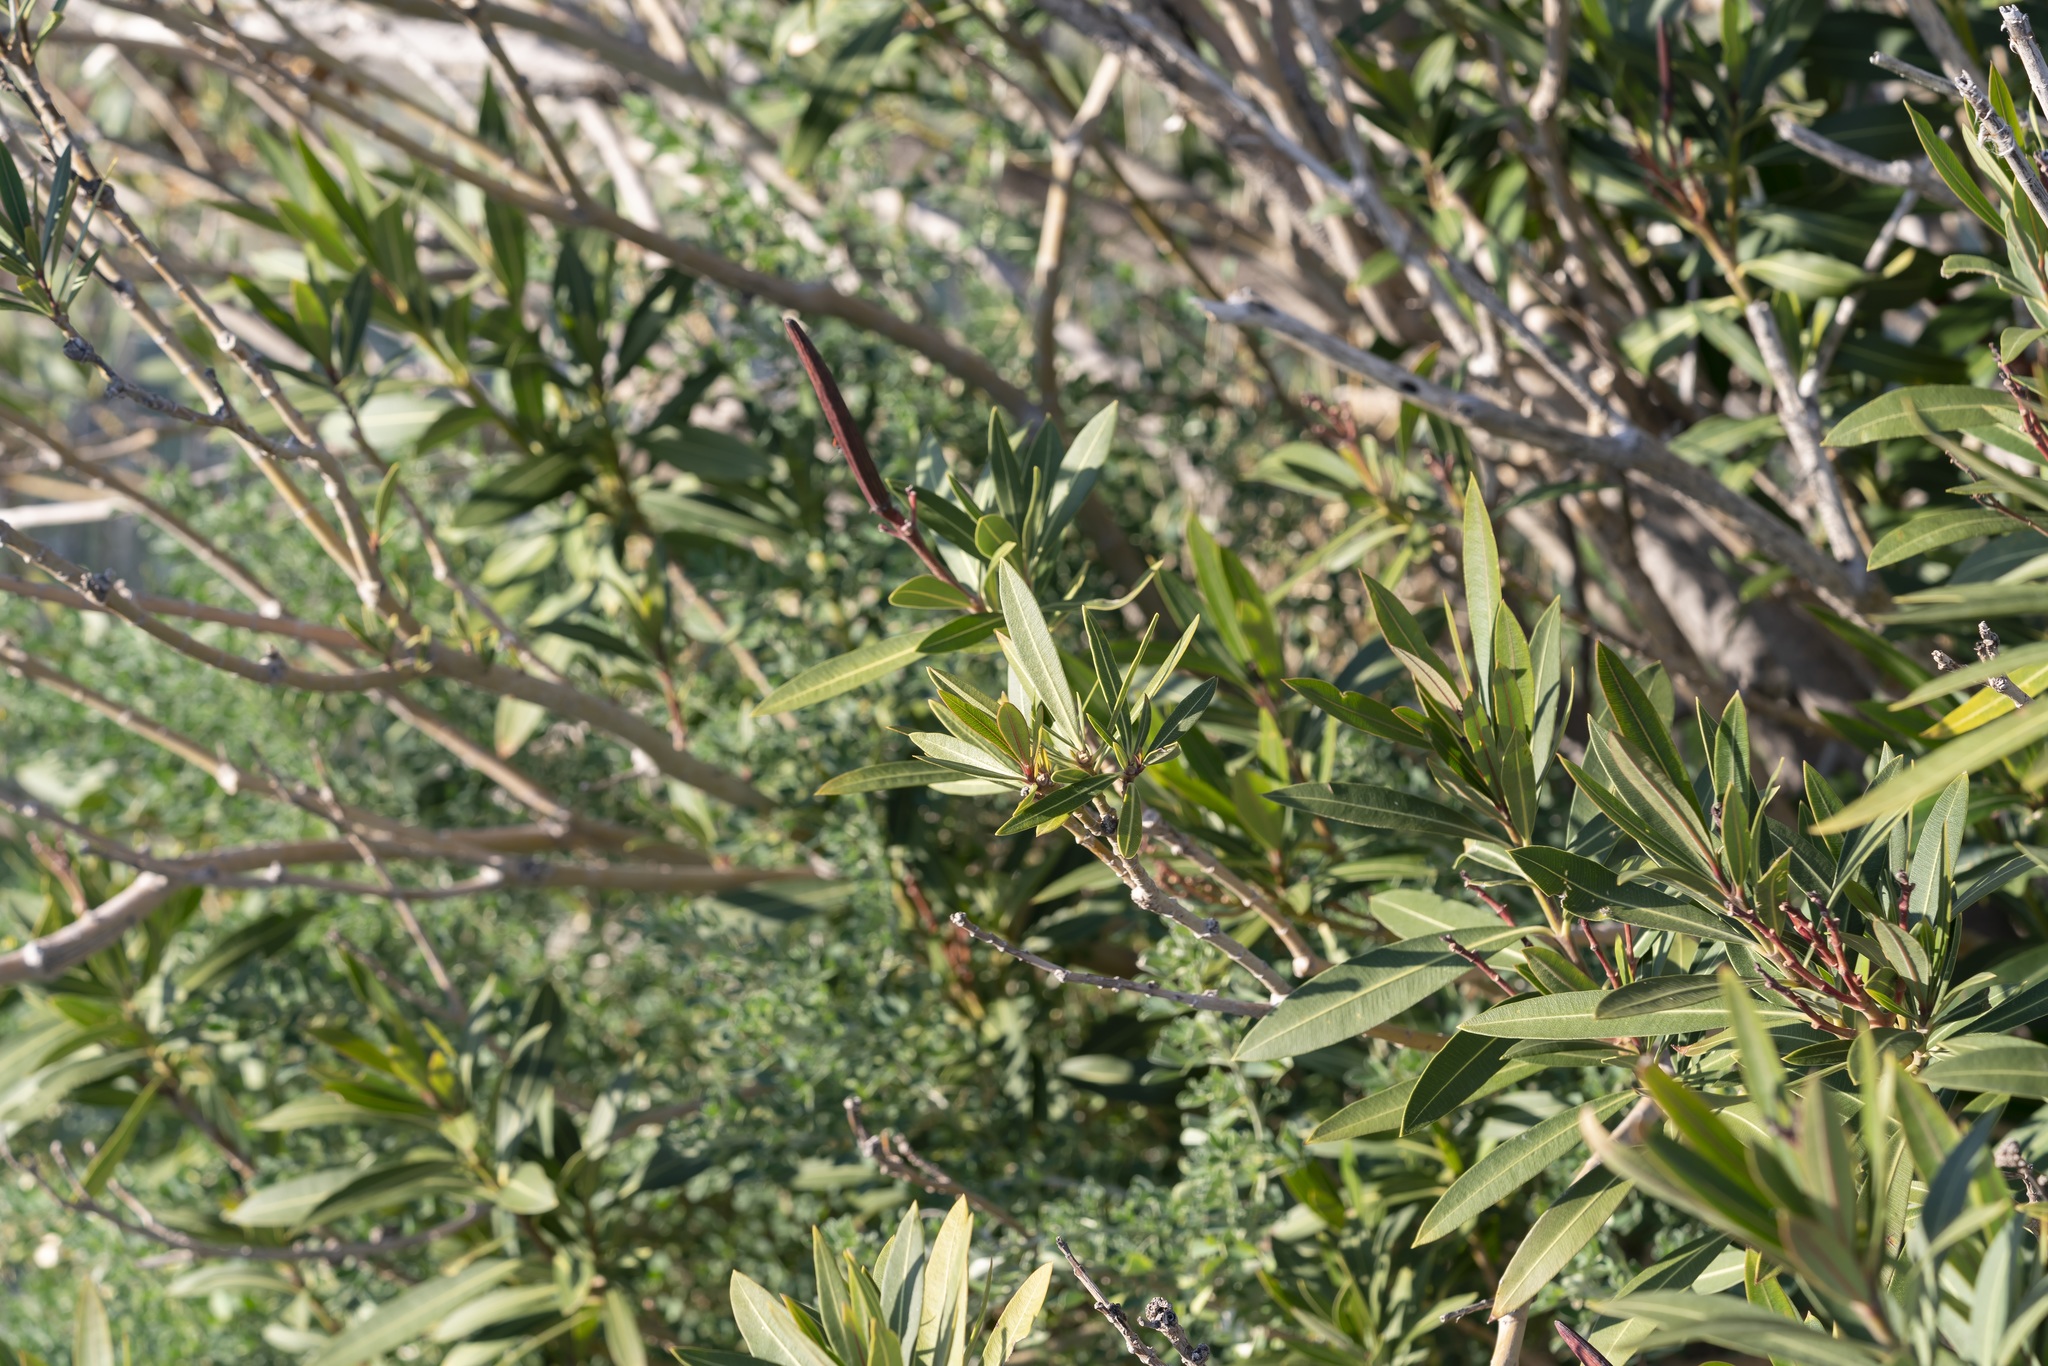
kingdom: Plantae
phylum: Tracheophyta
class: Magnoliopsida
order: Gentianales
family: Apocynaceae
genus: Nerium
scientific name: Nerium oleander
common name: Oleander
